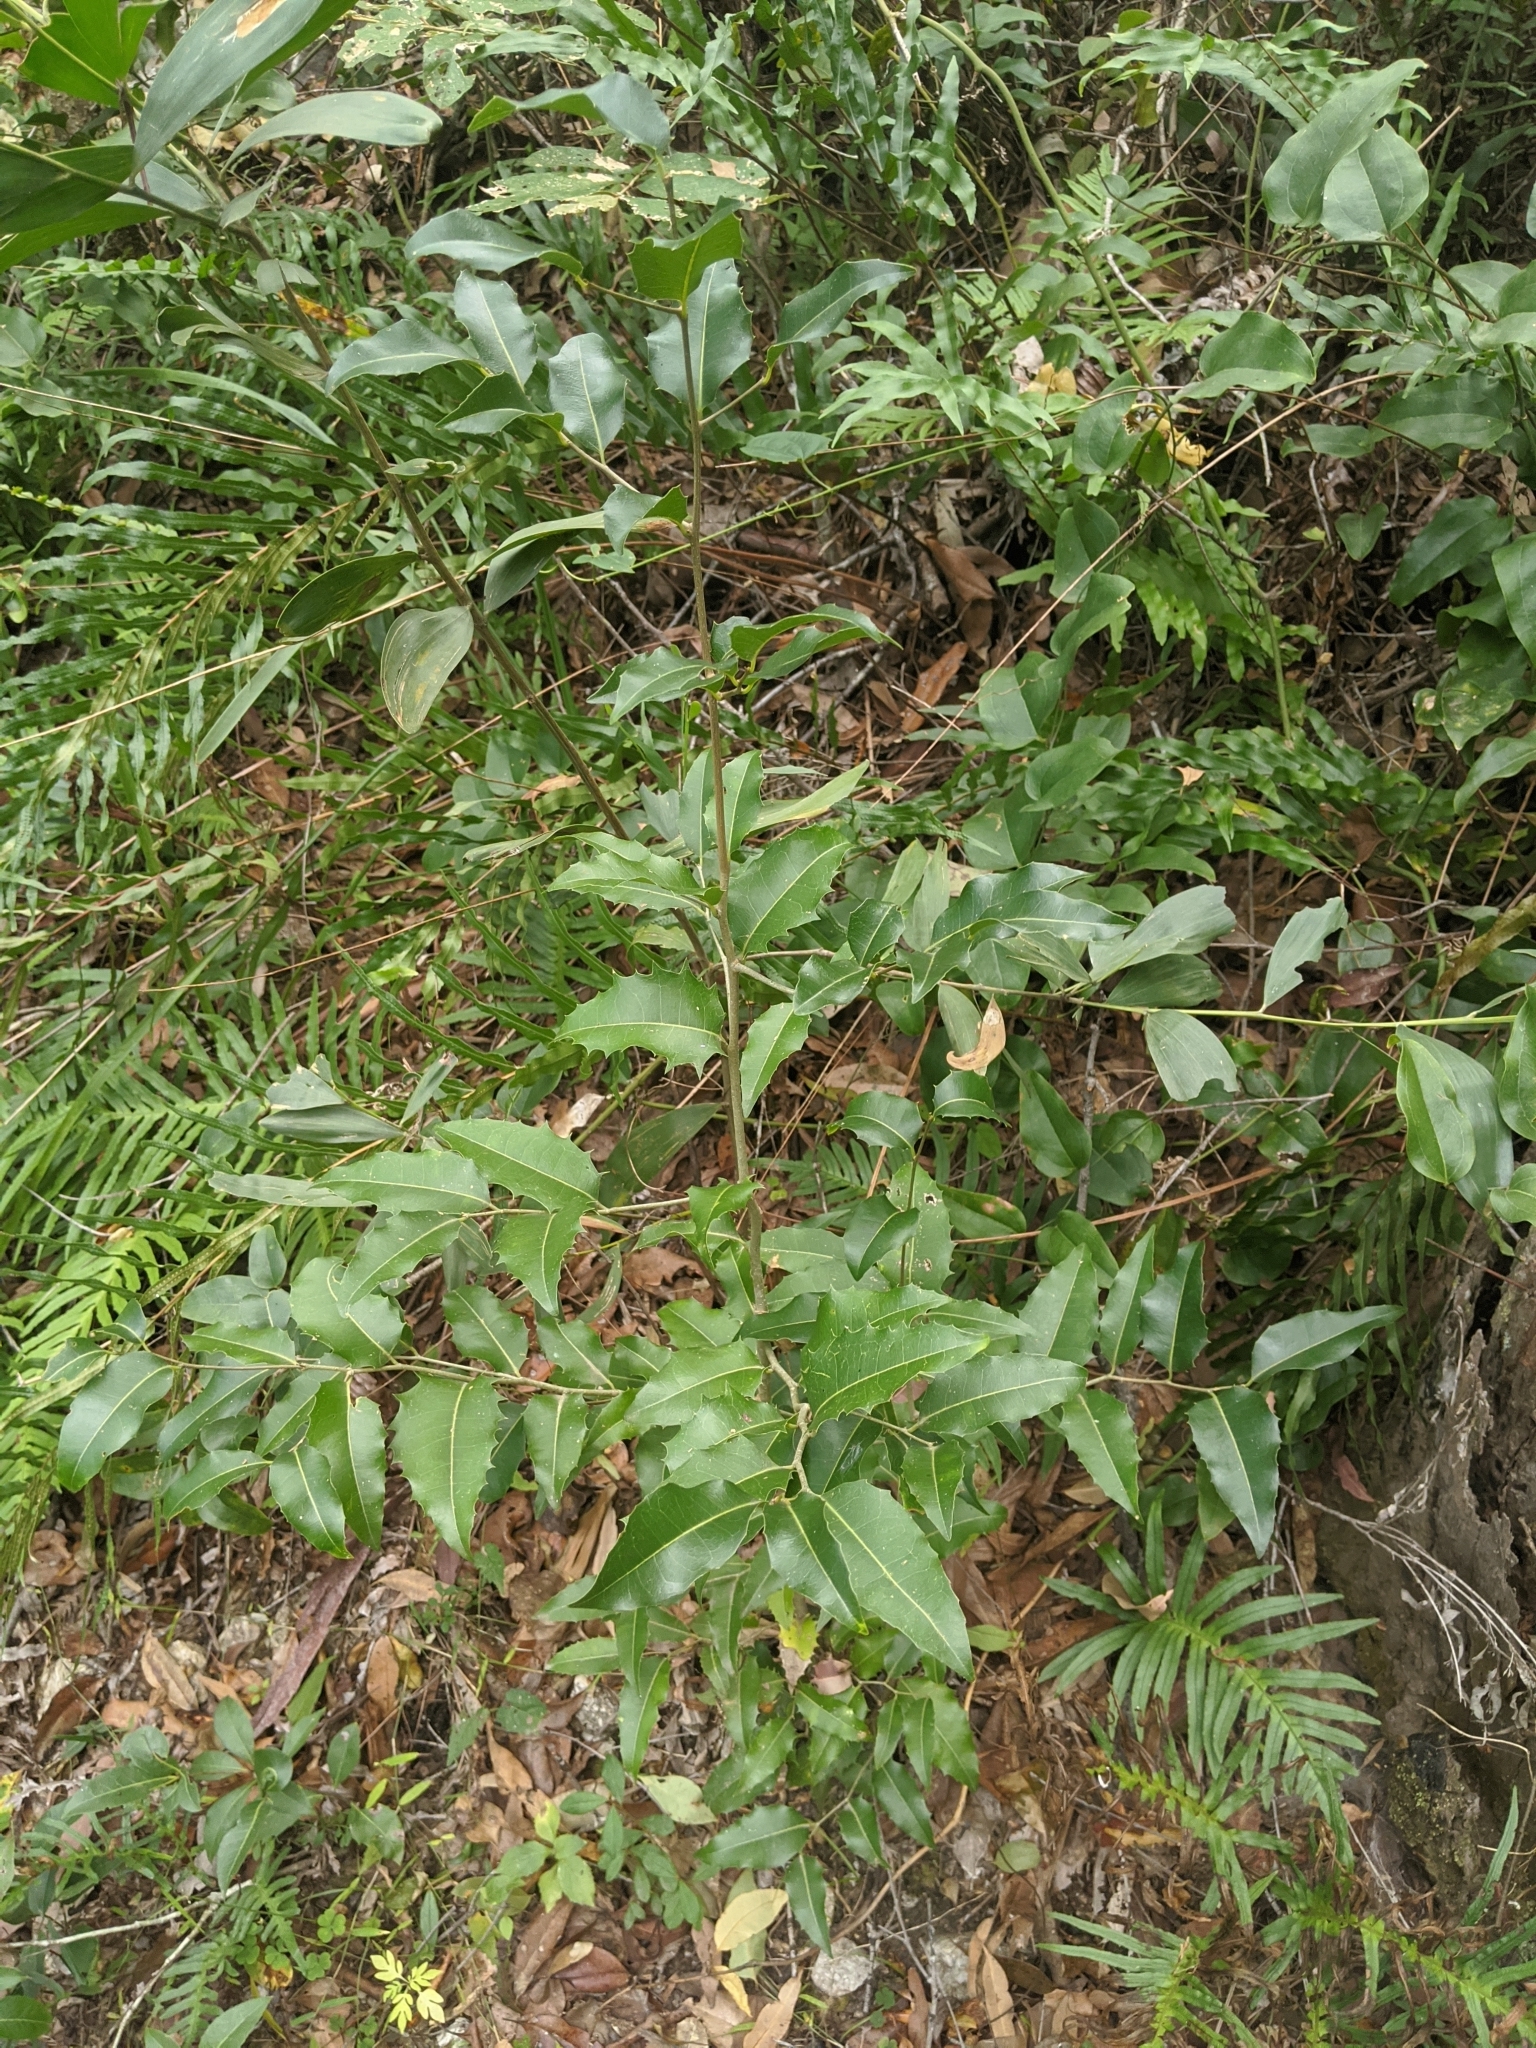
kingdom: Plantae
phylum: Tracheophyta
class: Magnoliopsida
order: Malpighiales
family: Putranjivaceae
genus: Drypetes
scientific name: Drypetes deplanchei
